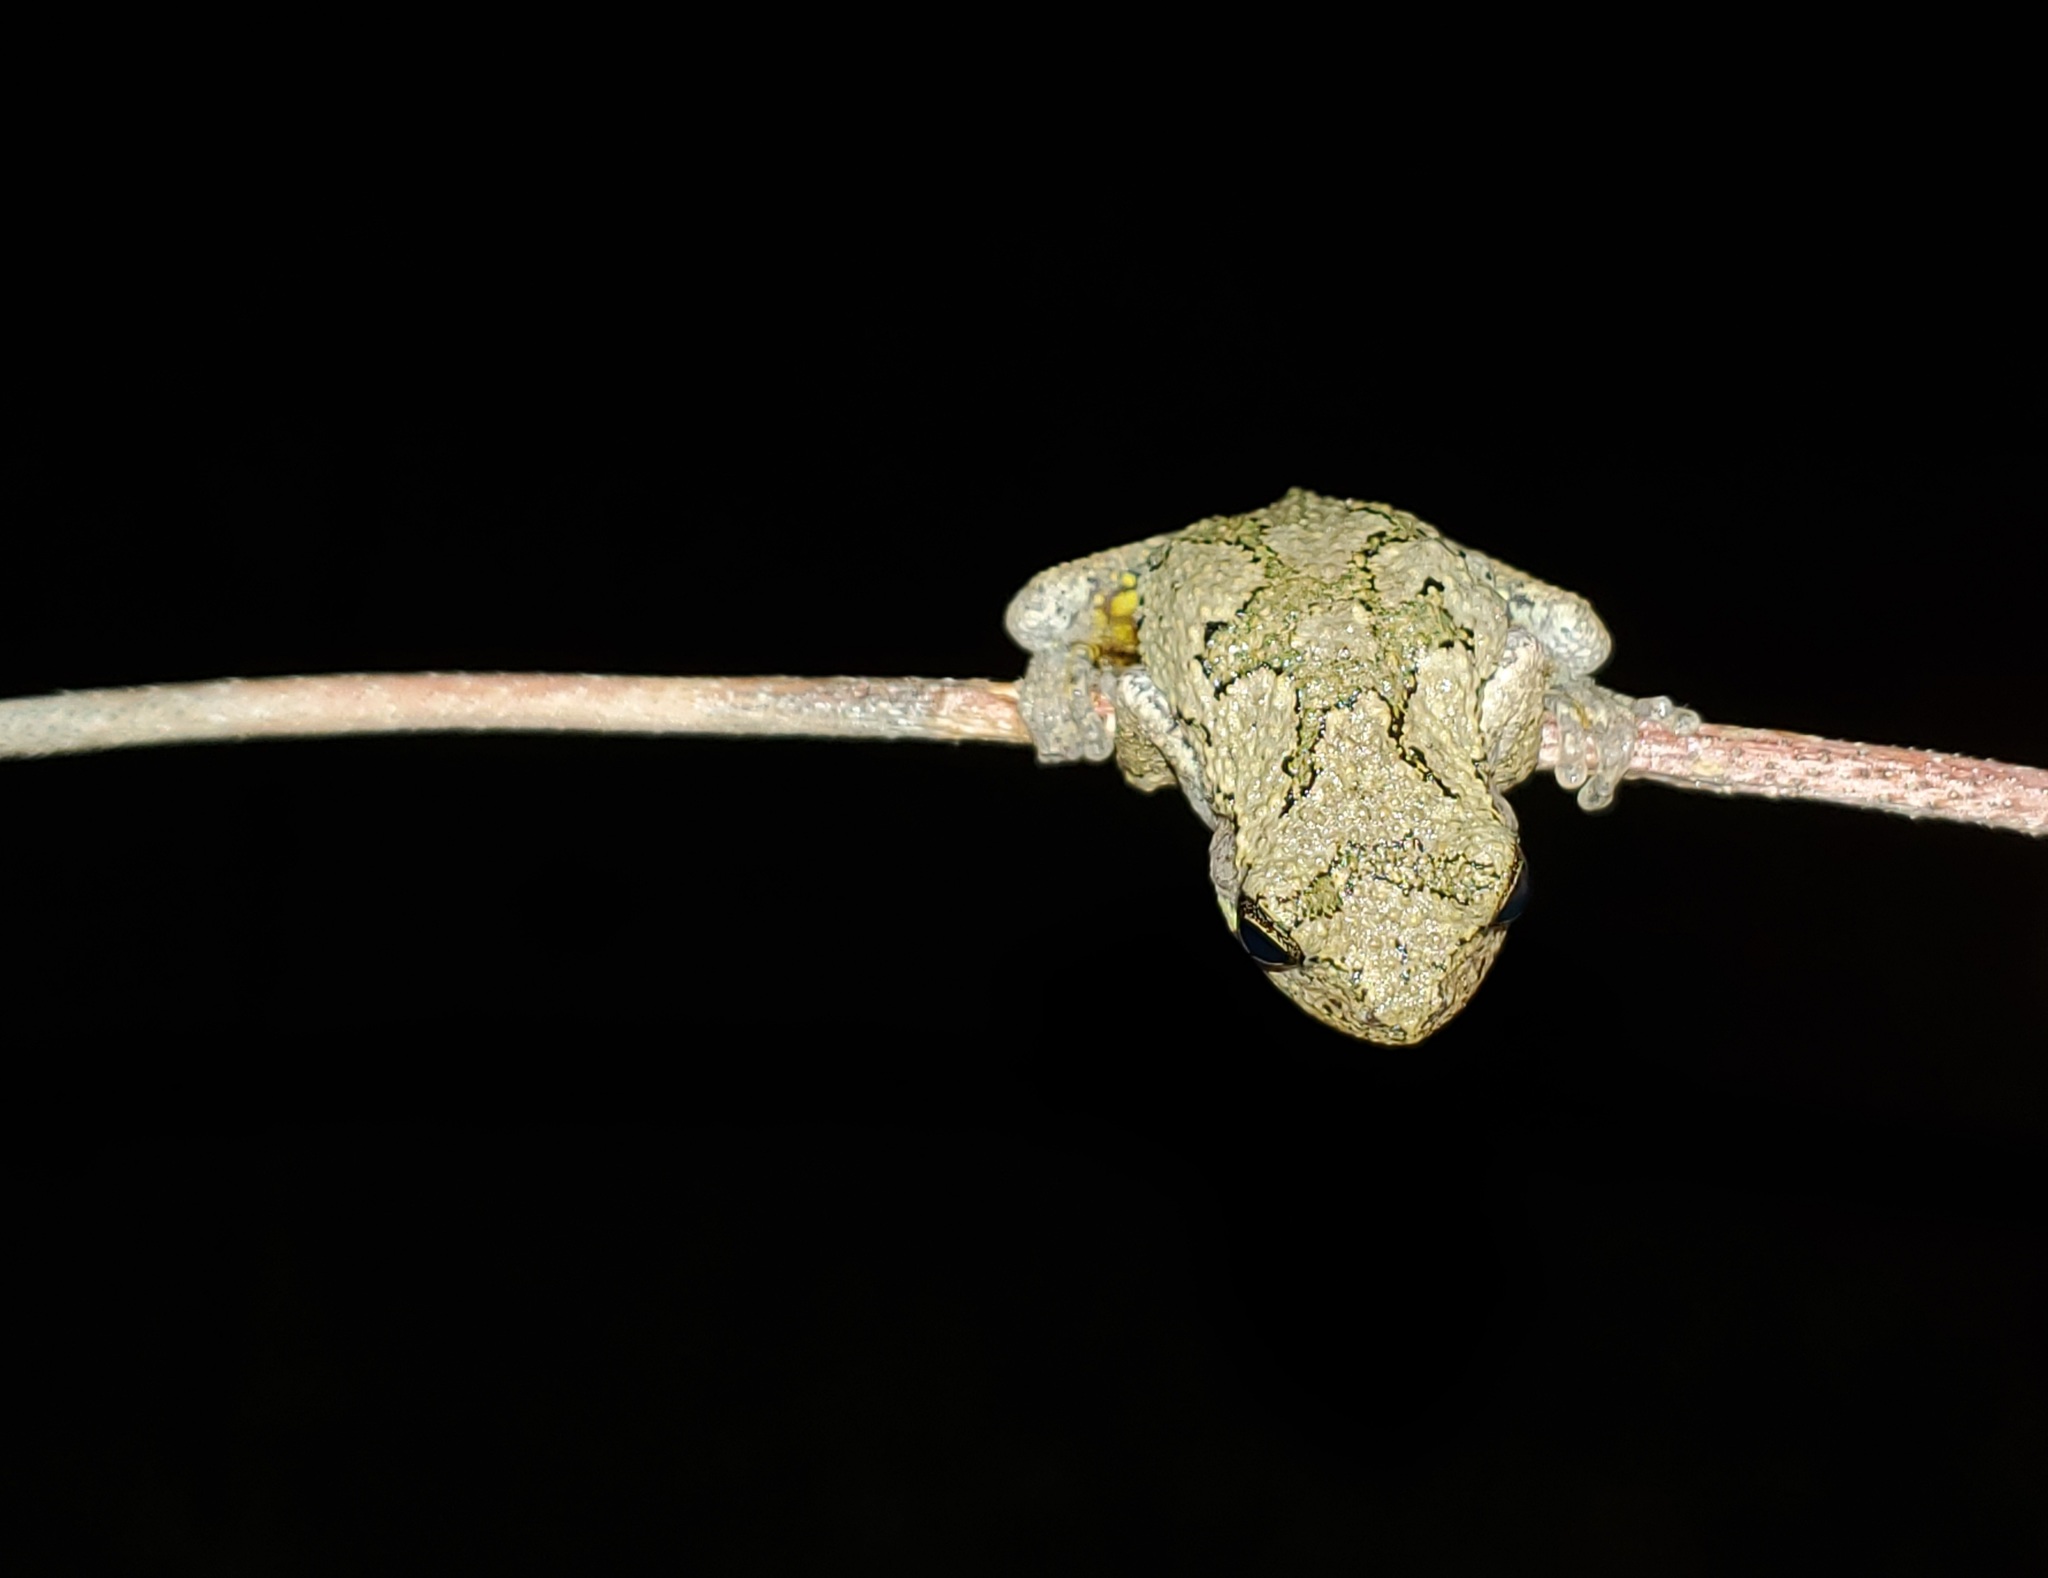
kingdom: Animalia
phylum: Chordata
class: Amphibia
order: Anura
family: Hylidae
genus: Dryophytes
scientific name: Dryophytes chrysoscelis
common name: Cope's gray treefrog
